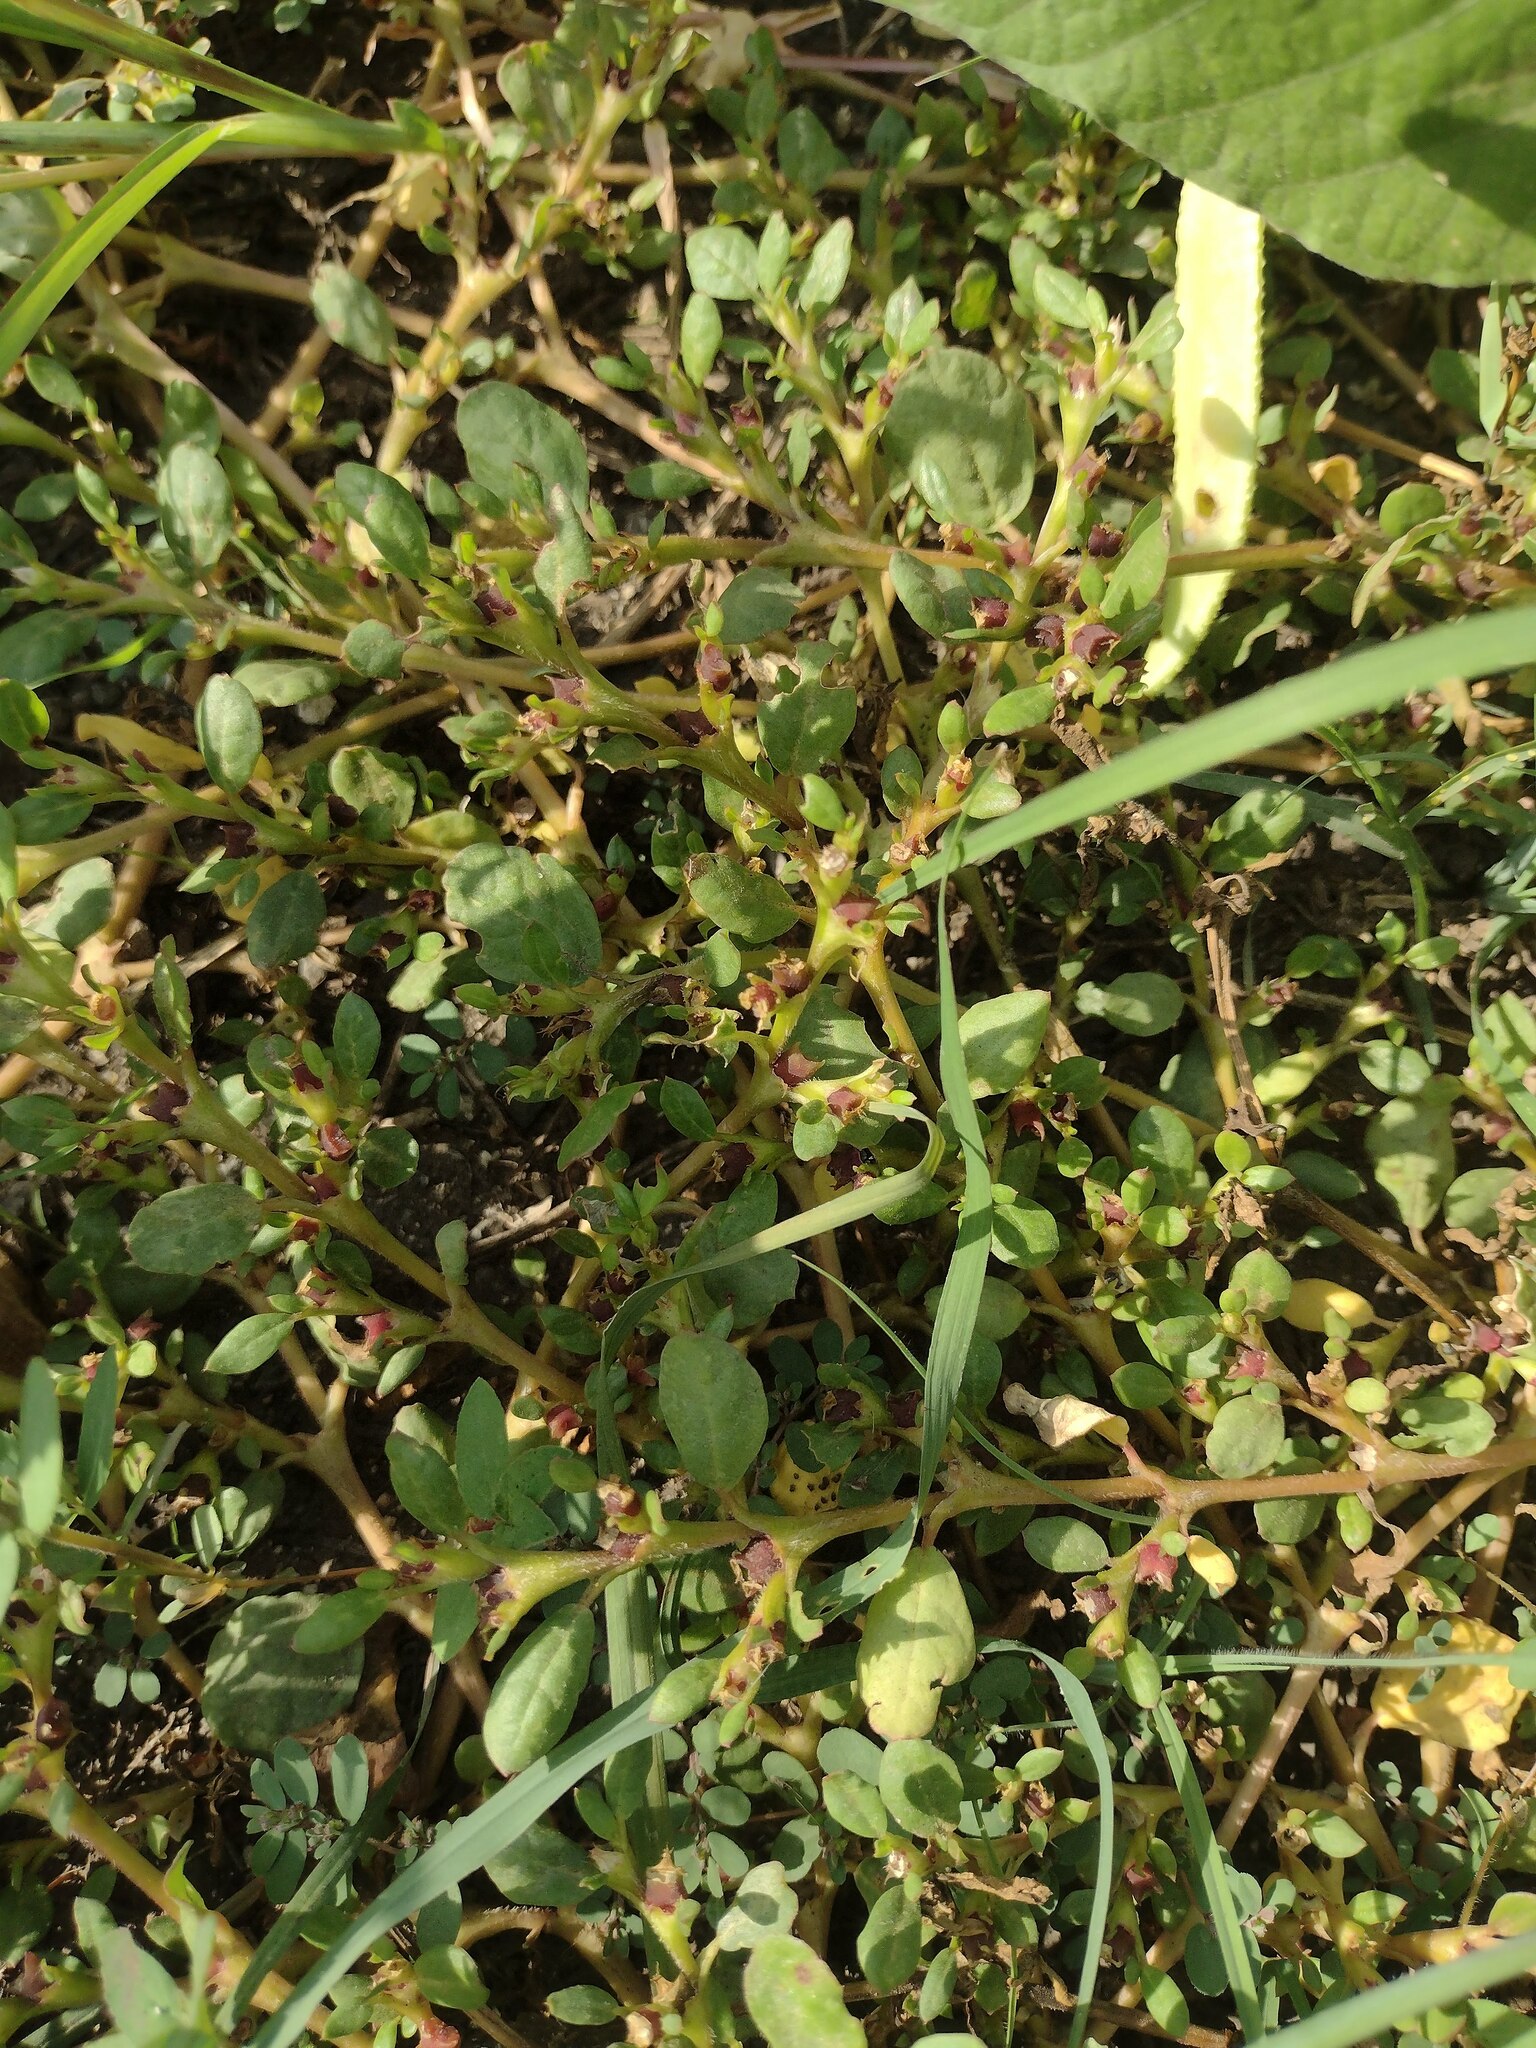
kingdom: Plantae
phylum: Tracheophyta
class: Magnoliopsida
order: Caryophyllales
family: Aizoaceae
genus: Trianthema
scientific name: Trianthema portulacastrum
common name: Desert horsepurslane
